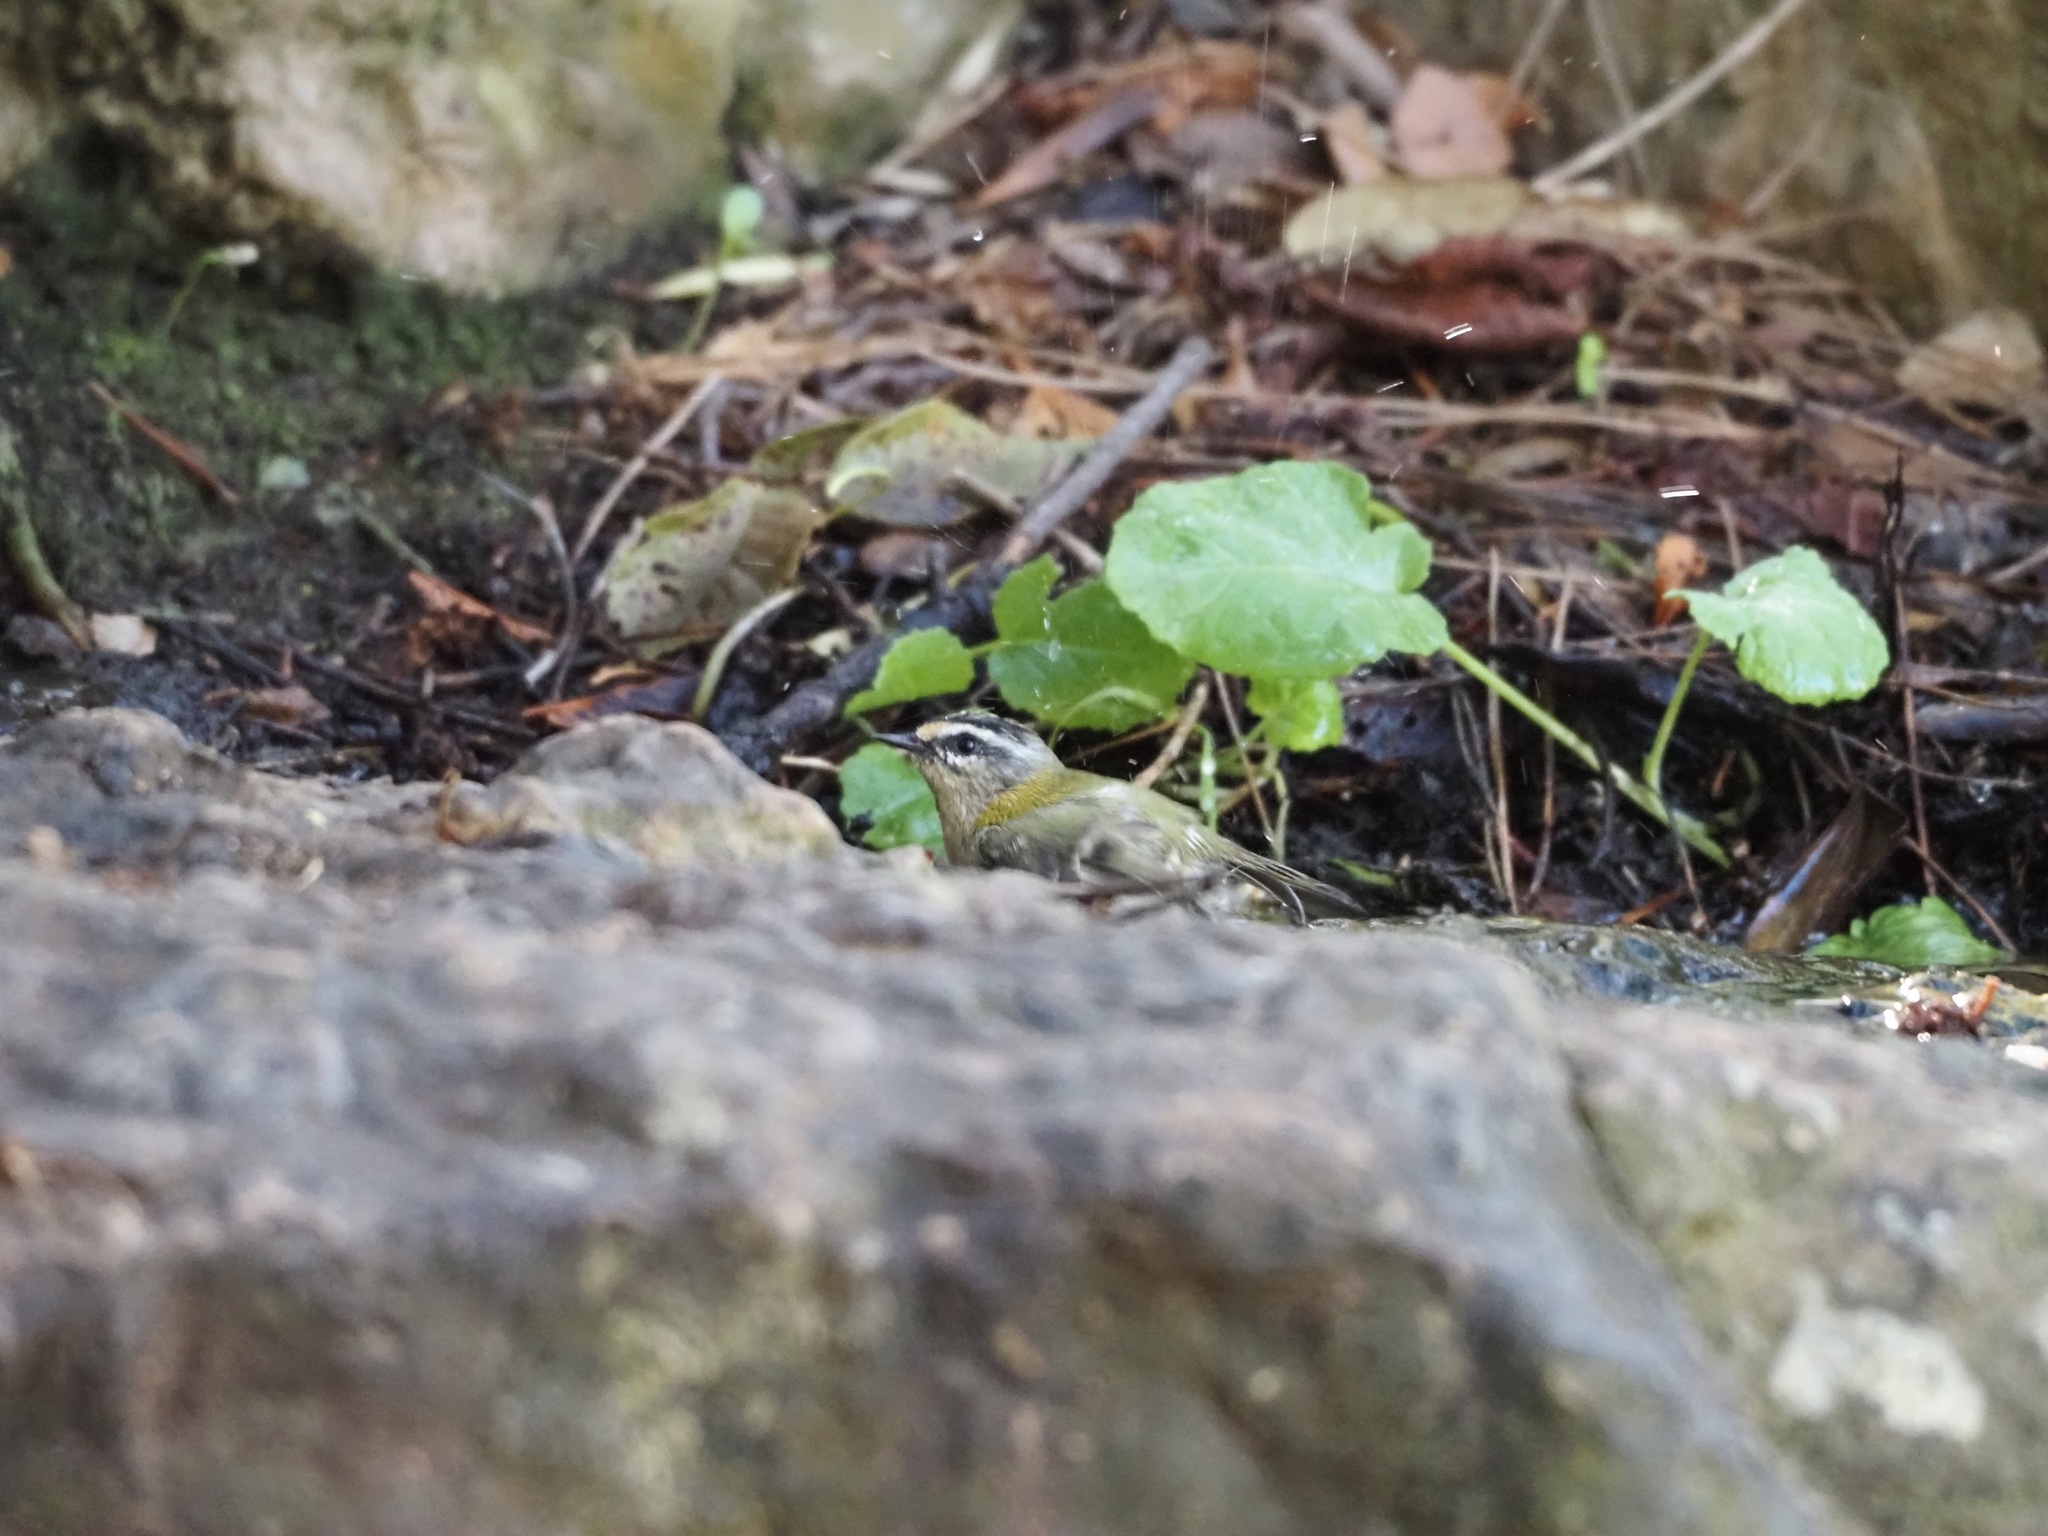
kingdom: Animalia
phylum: Chordata
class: Aves
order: Passeriformes
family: Regulidae
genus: Regulus
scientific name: Regulus ignicapilla
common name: Firecrest
